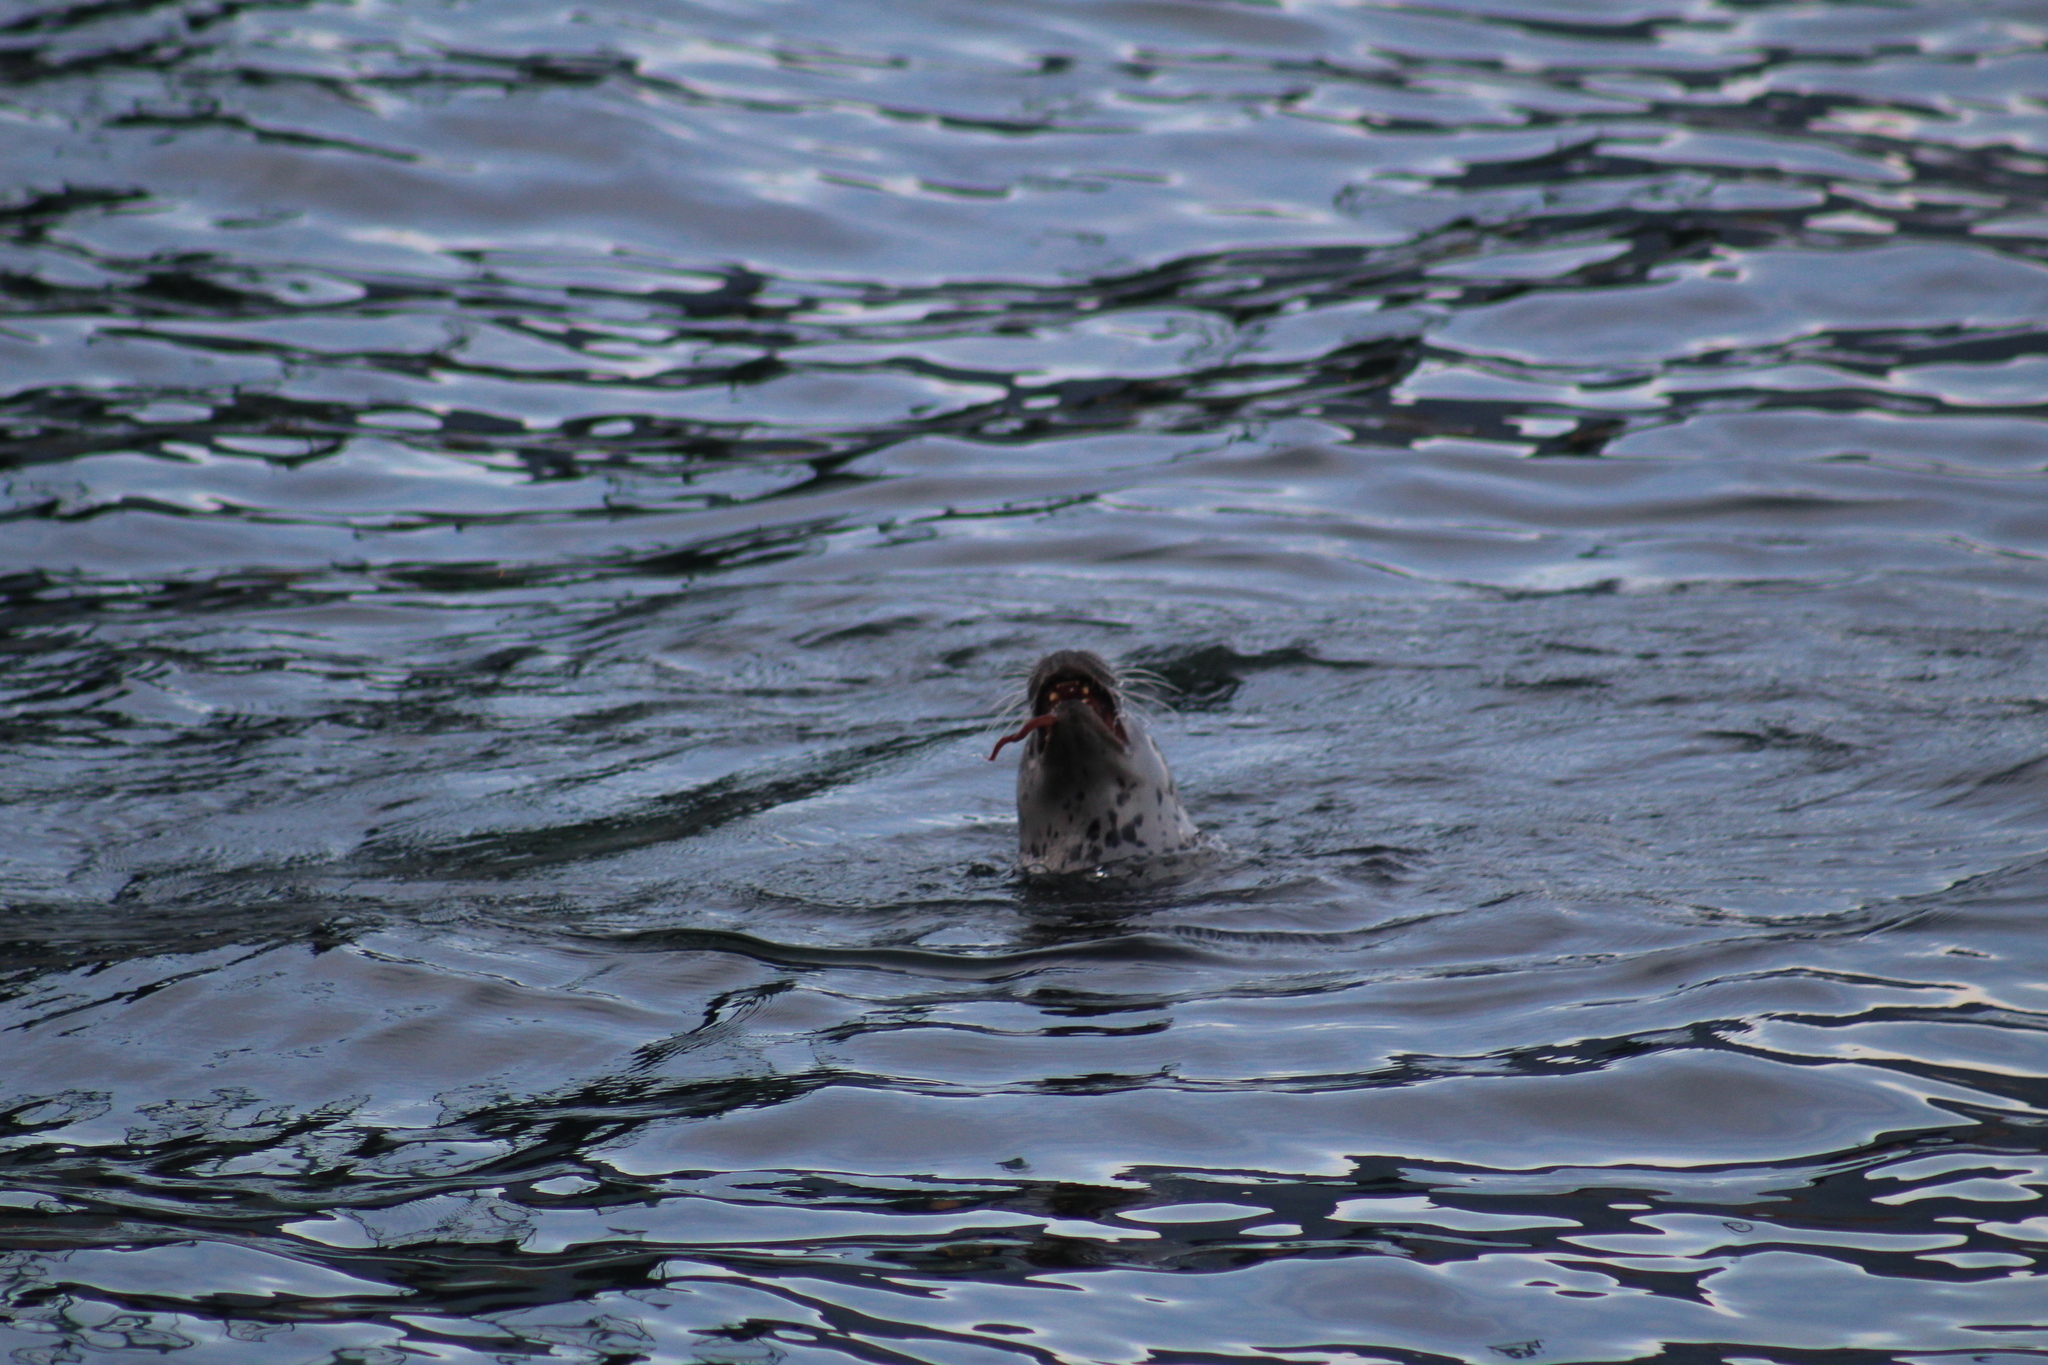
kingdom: Animalia
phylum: Chordata
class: Mammalia
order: Carnivora
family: Phocidae
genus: Phoca
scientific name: Phoca vitulina
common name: Harbor seal
